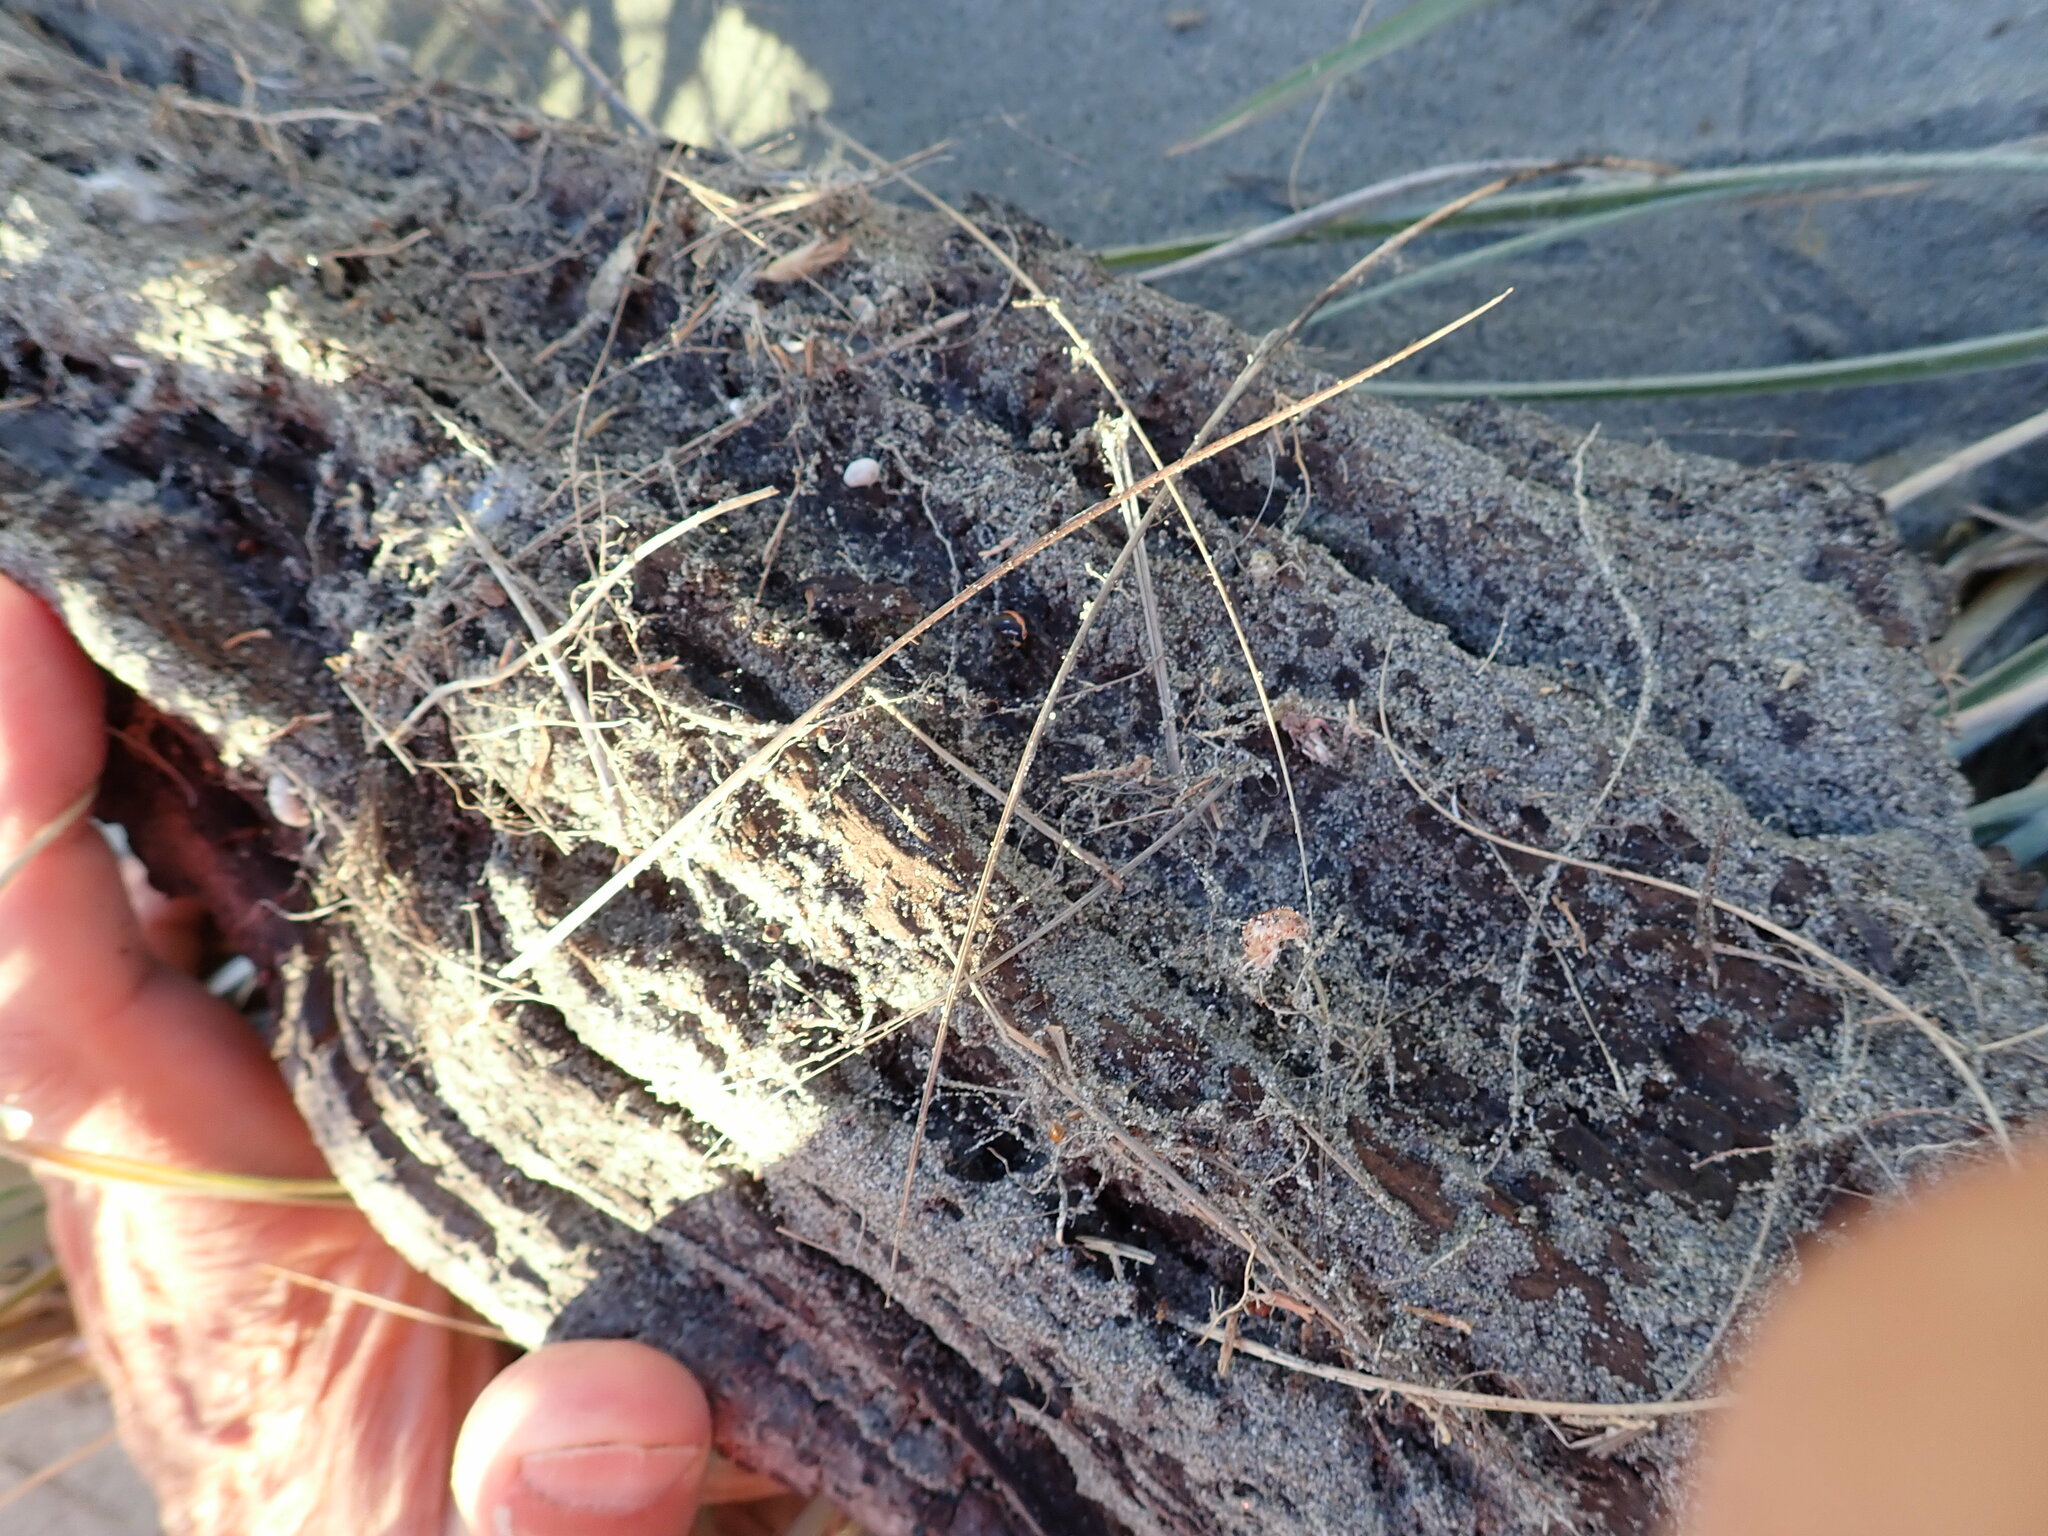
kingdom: Animalia
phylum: Arthropoda
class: Arachnida
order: Araneae
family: Theridiidae
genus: Latrodectus
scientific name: Latrodectus katipo
